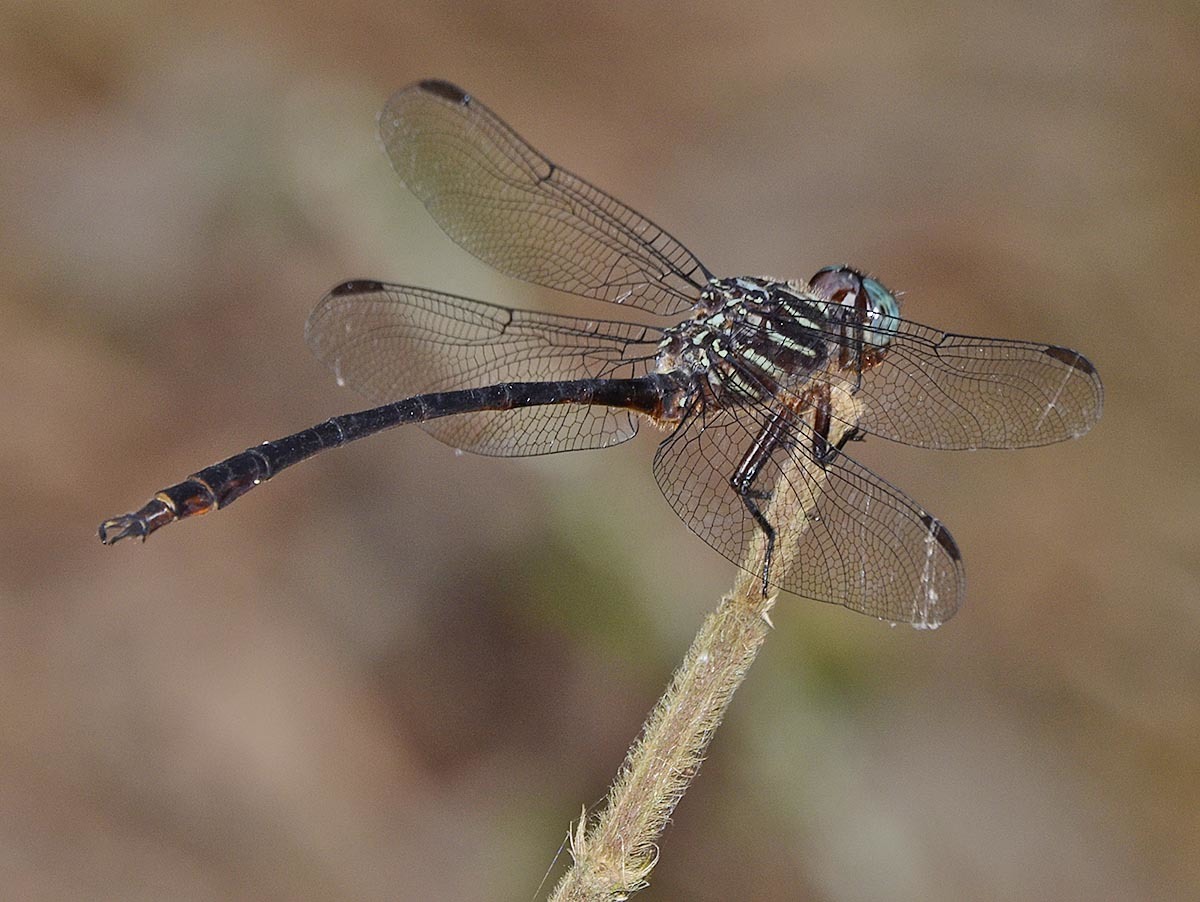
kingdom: Animalia
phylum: Arthropoda
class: Insecta
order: Odonata
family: Gomphidae
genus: Aphylla
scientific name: Aphylla molossus
